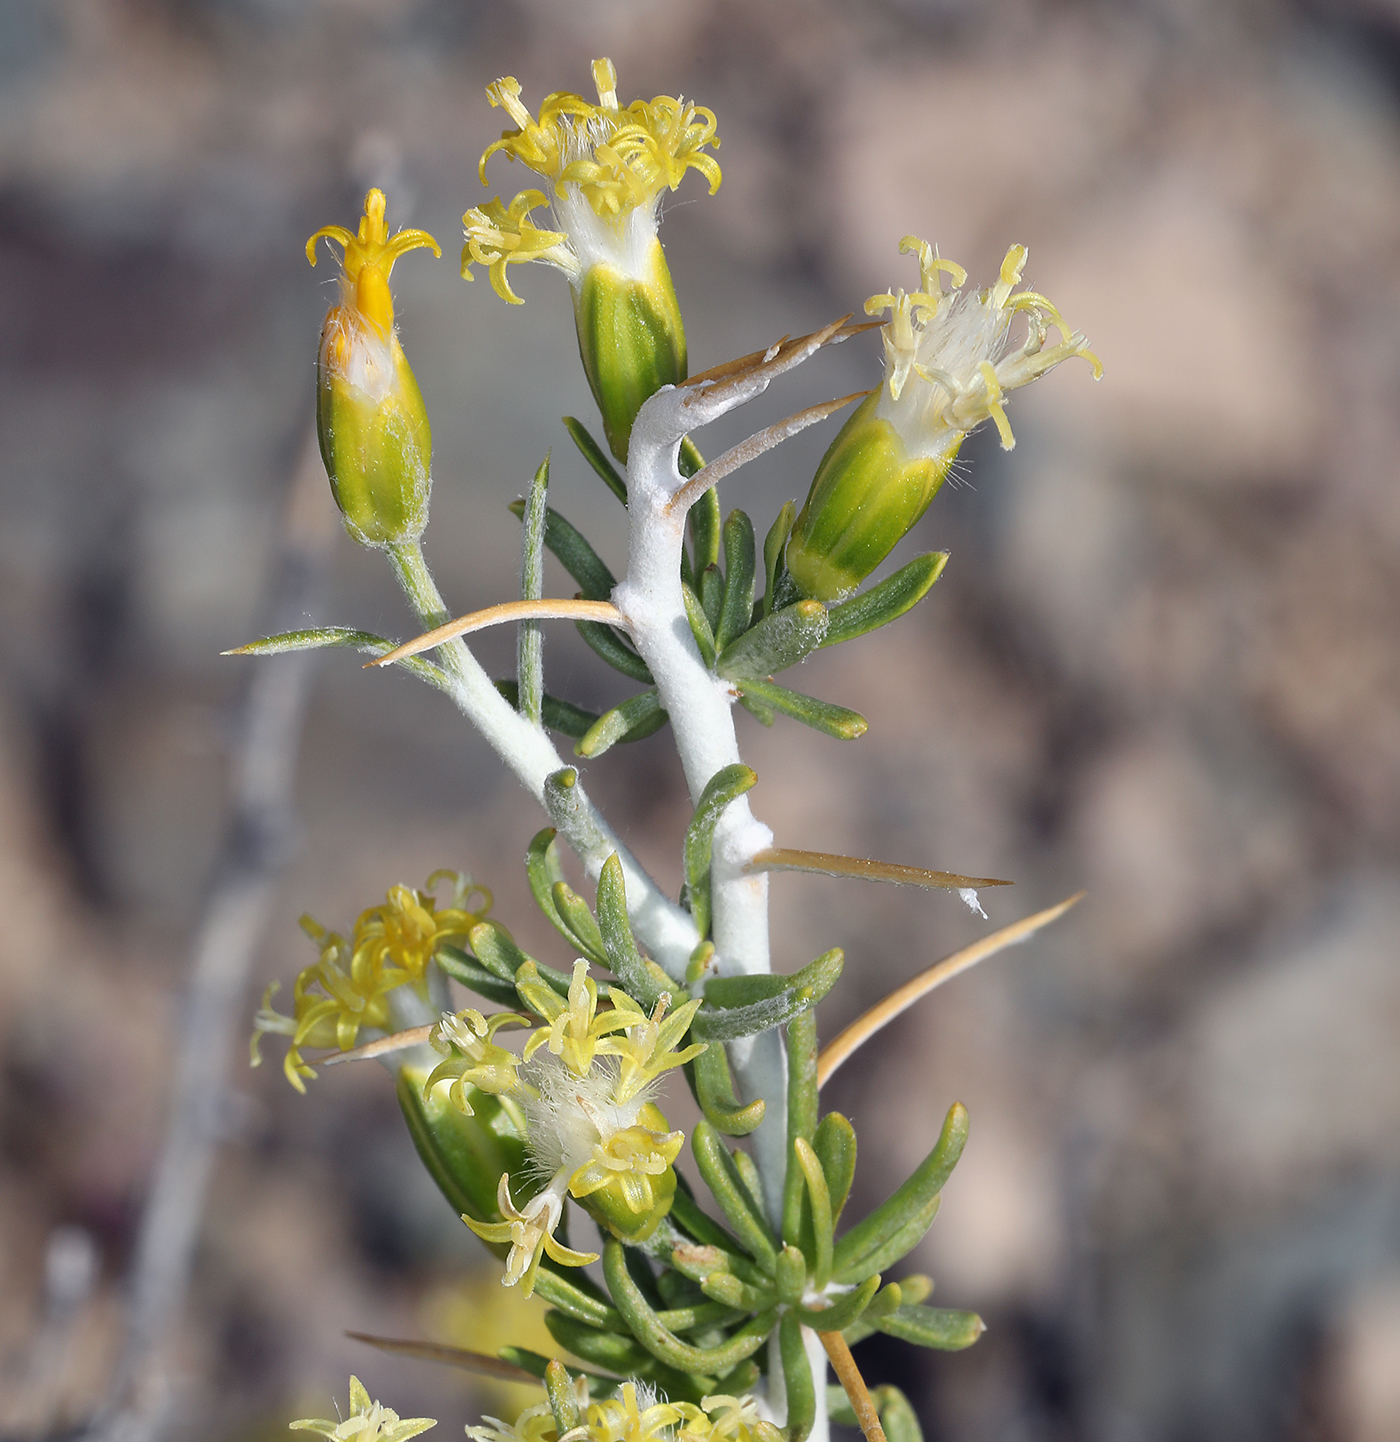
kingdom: Plantae
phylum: Tracheophyta
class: Magnoliopsida
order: Asterales
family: Asteraceae
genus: Tetradymia
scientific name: Tetradymia axillaris
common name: Long-spine horsebrush
